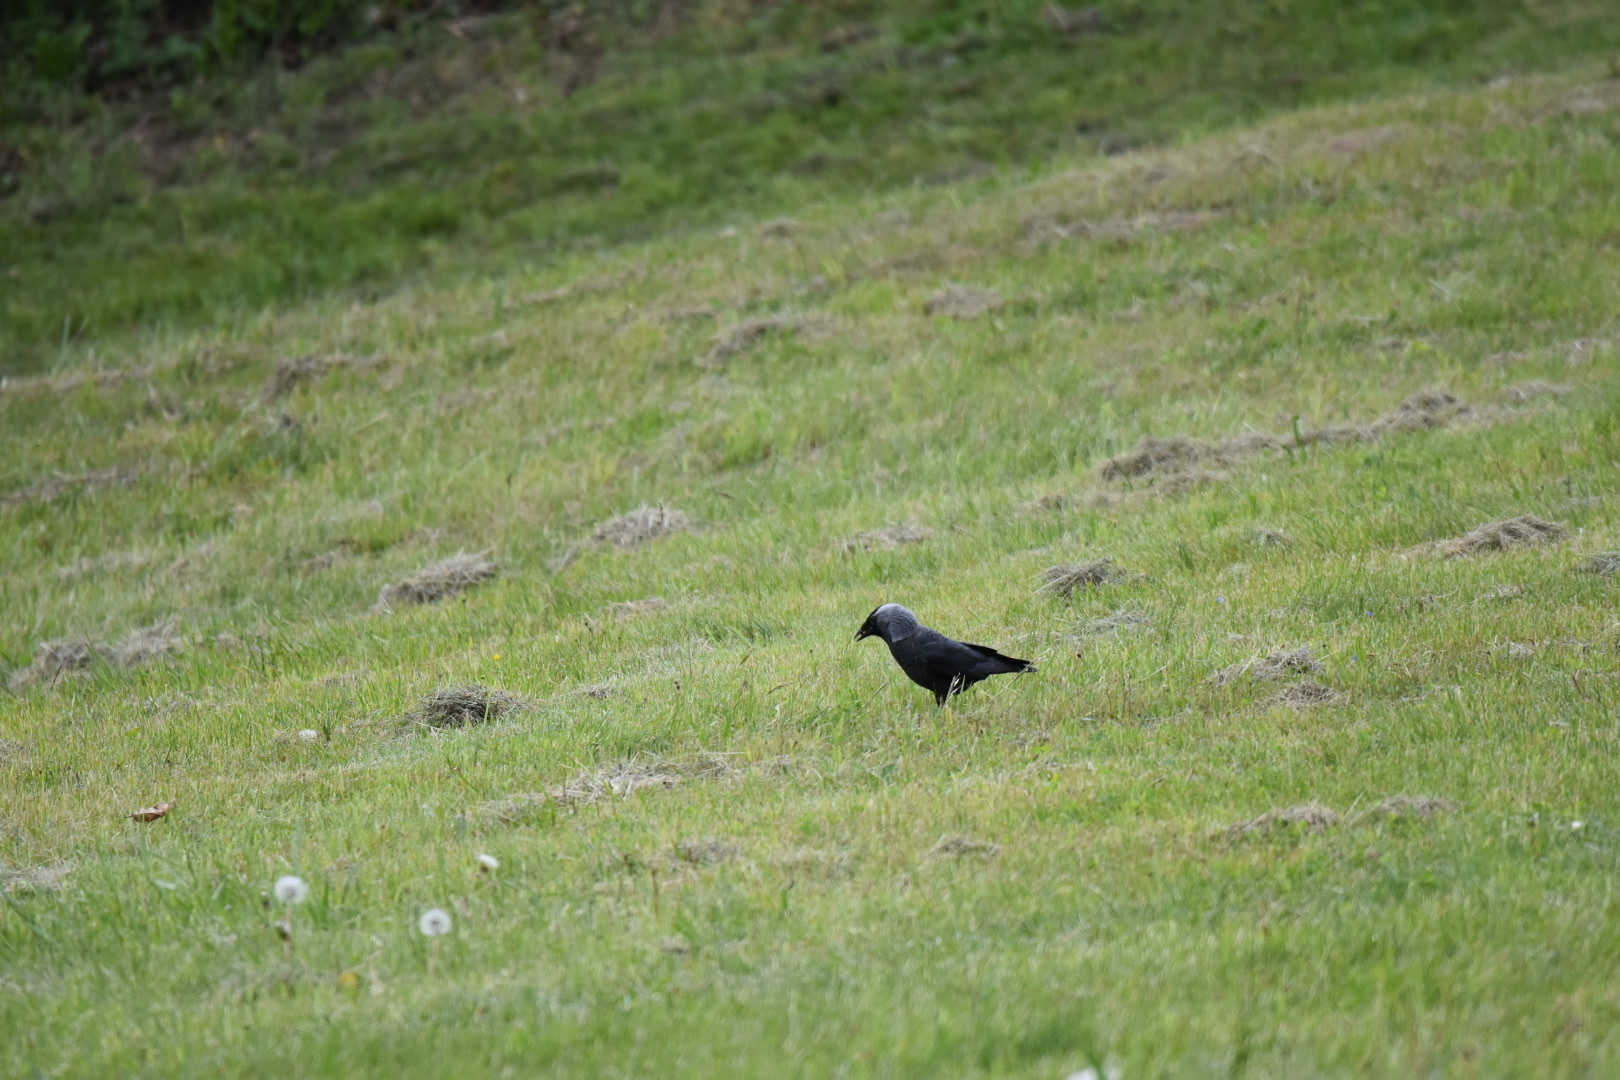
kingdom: Animalia
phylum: Chordata
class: Aves
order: Passeriformes
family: Corvidae
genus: Coloeus
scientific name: Coloeus monedula
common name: Western jackdaw
